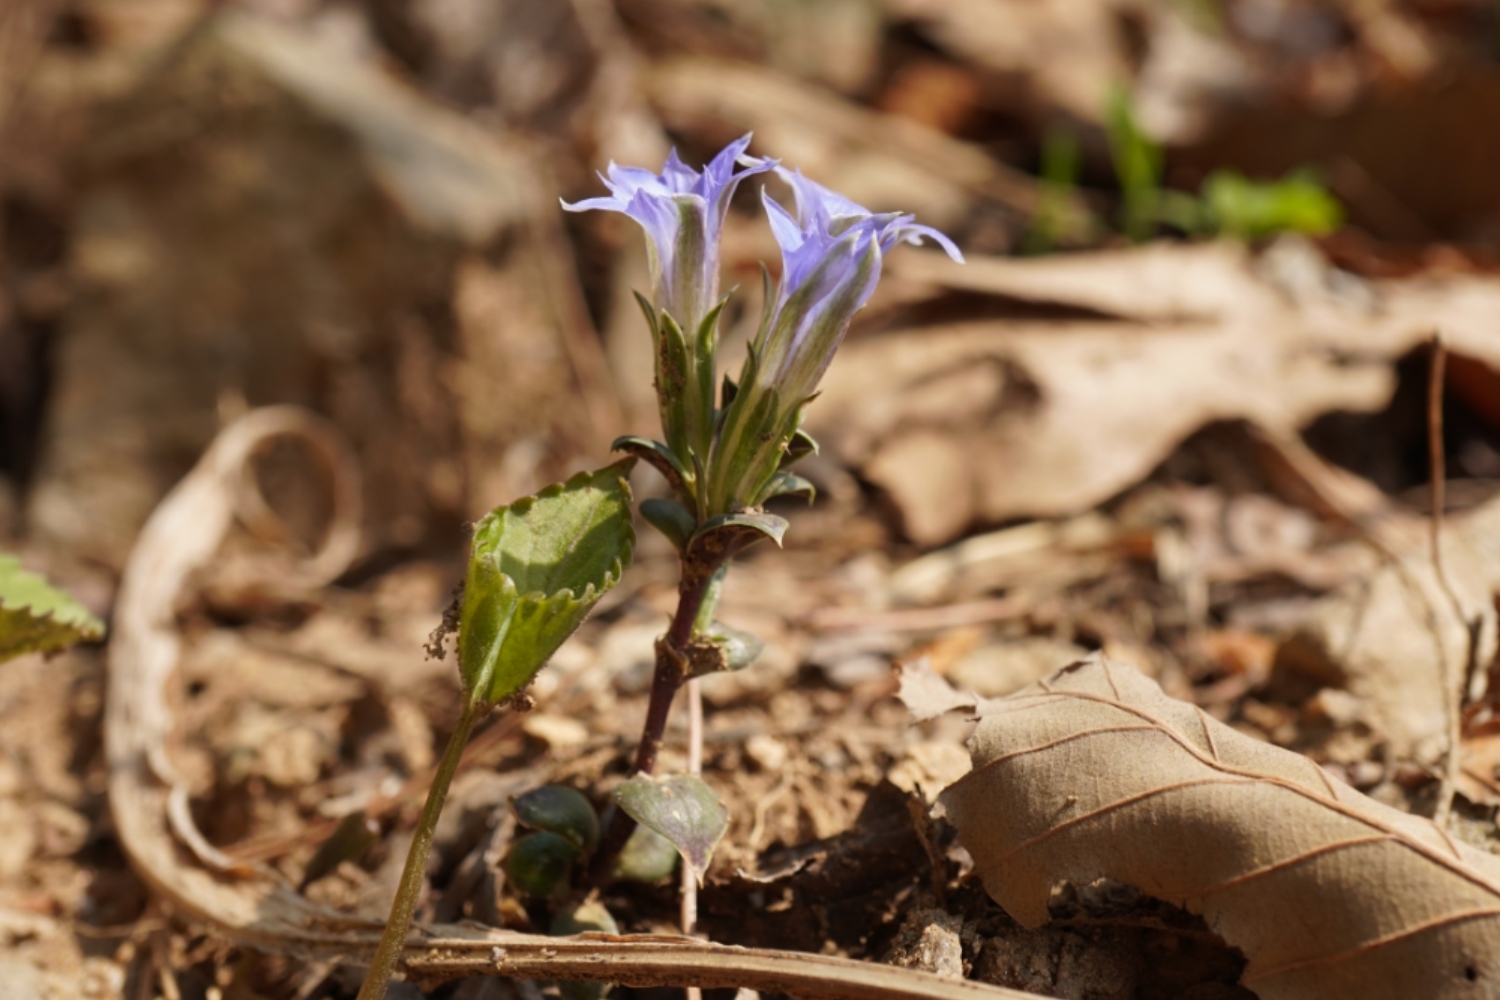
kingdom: Plantae
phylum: Tracheophyta
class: Magnoliopsida
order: Gentianales
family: Gentianaceae
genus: Gentiana
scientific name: Gentiana zollingeri
